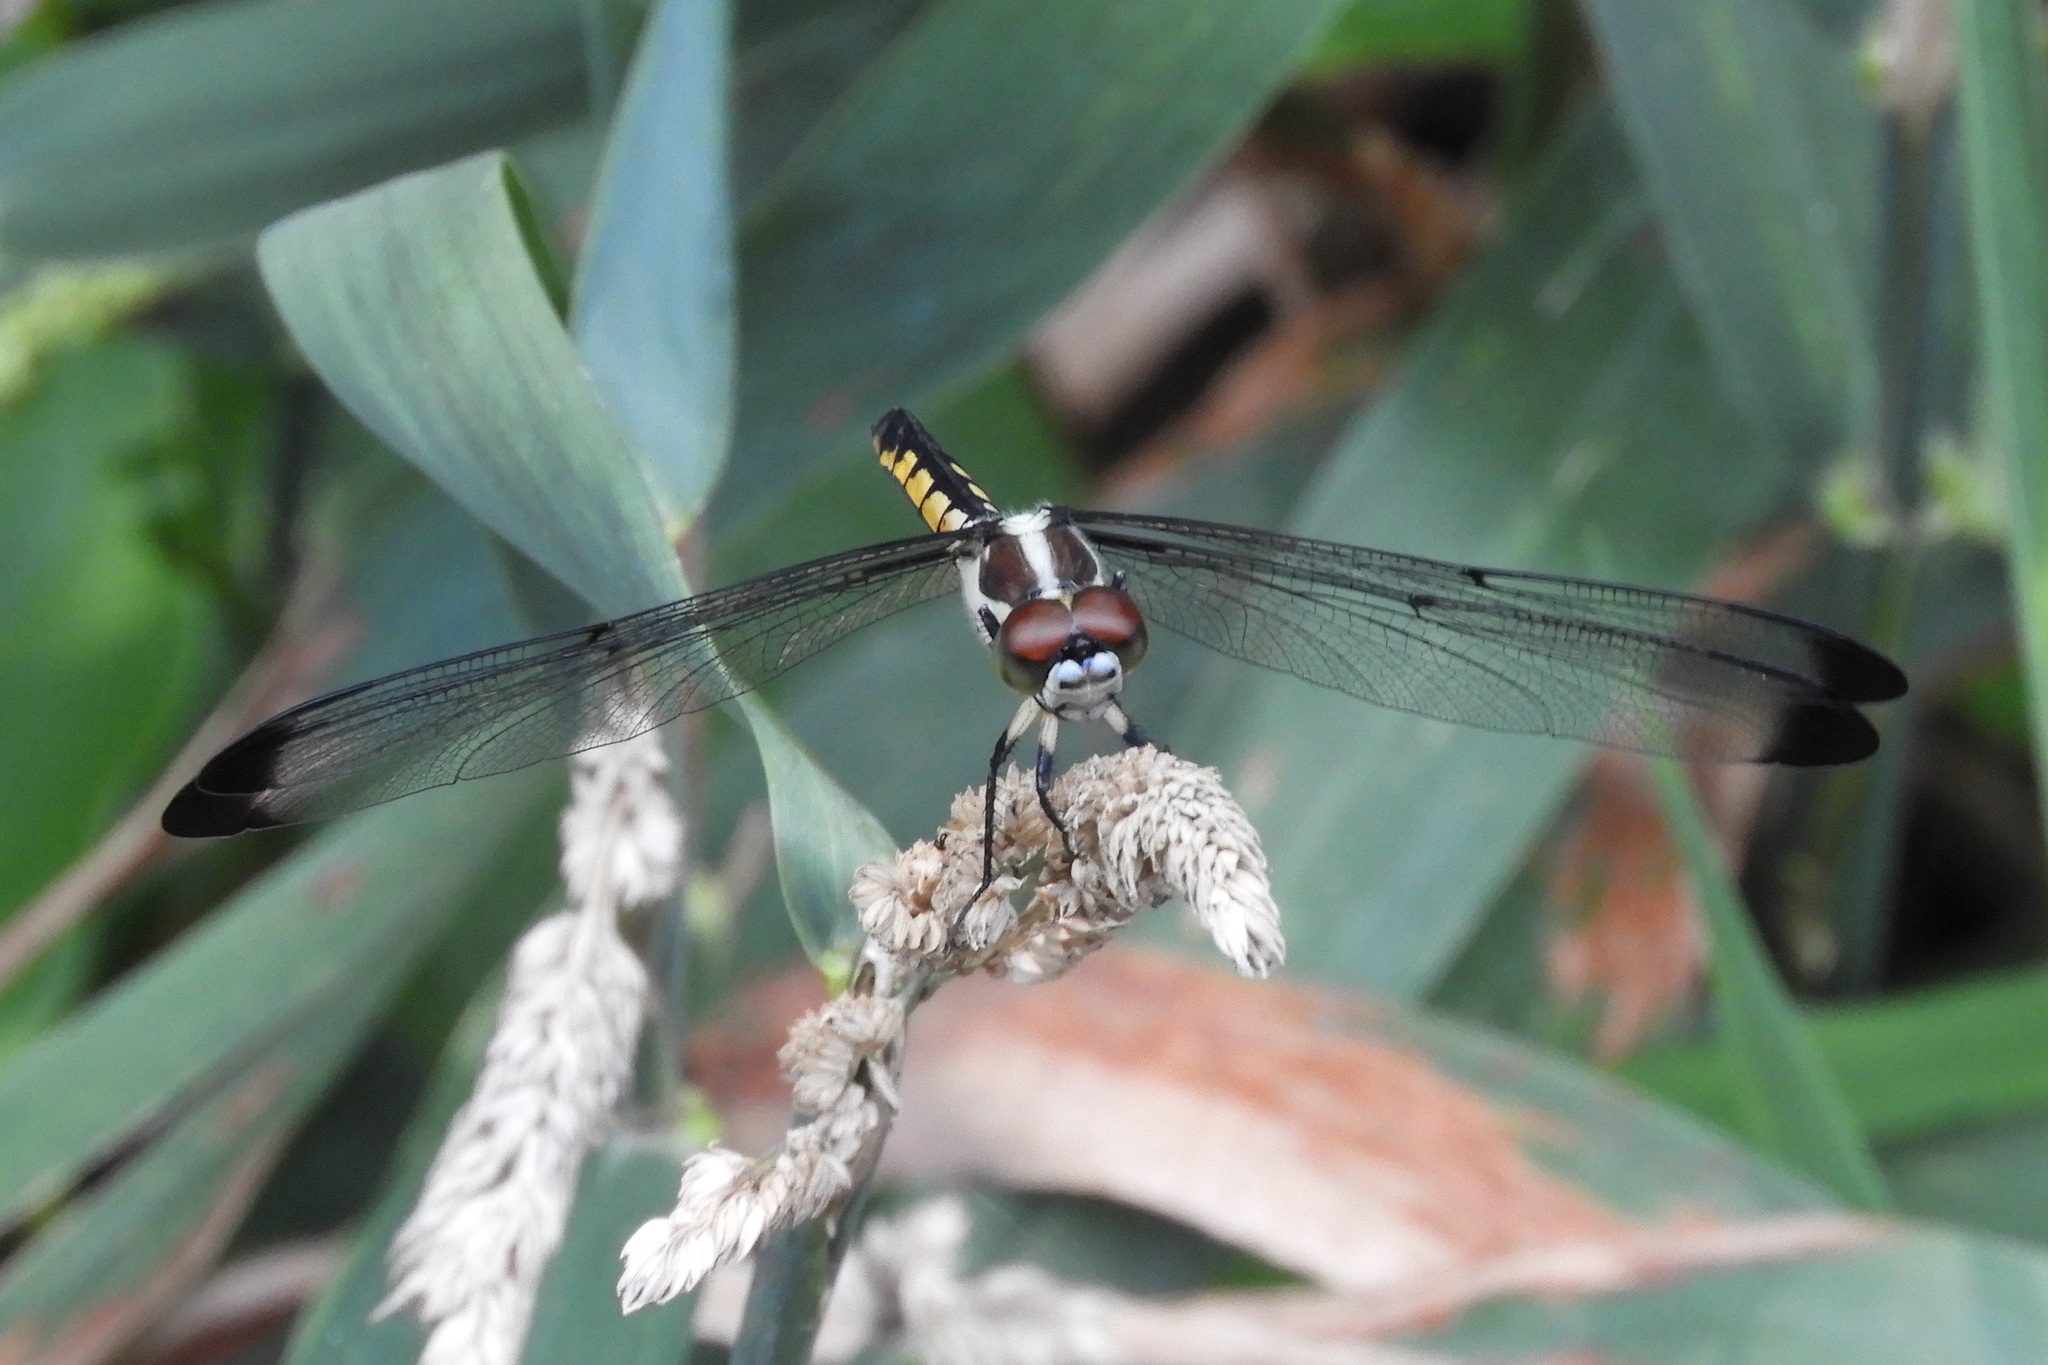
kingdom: Animalia
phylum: Arthropoda
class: Insecta
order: Odonata
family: Libellulidae
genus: Libellula
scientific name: Libellula vibrans
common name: Great blue skimmer
